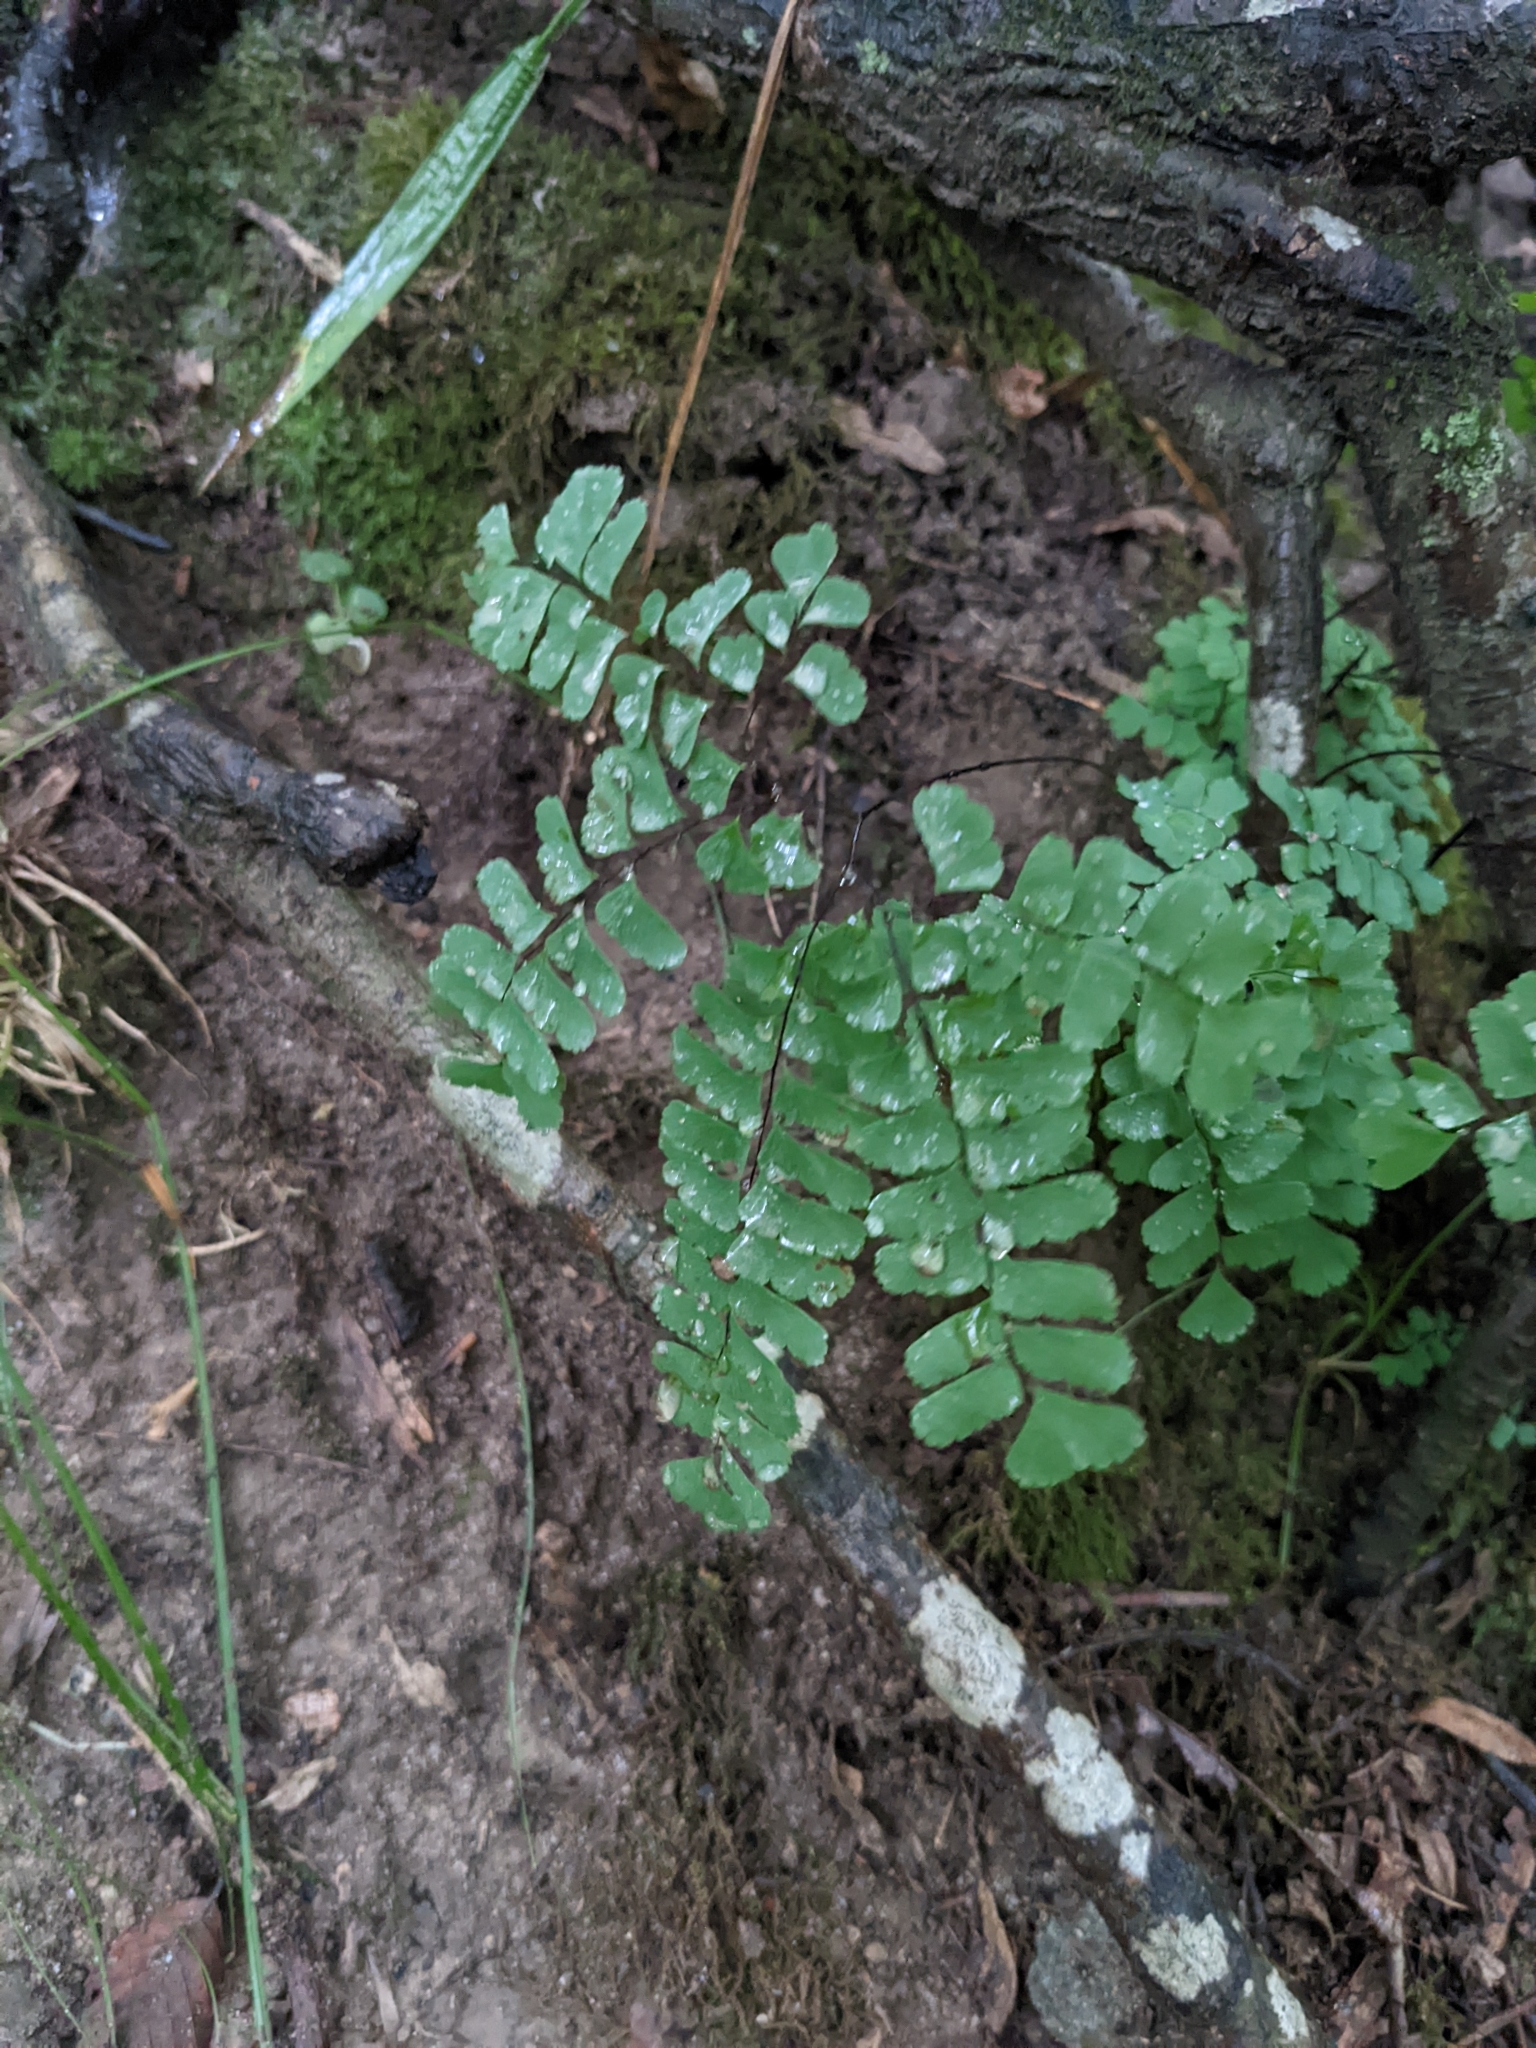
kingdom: Plantae
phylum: Tracheophyta
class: Polypodiopsida
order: Polypodiales
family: Pteridaceae
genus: Adiantum
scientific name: Adiantum pedatum
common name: Five-finger fern
